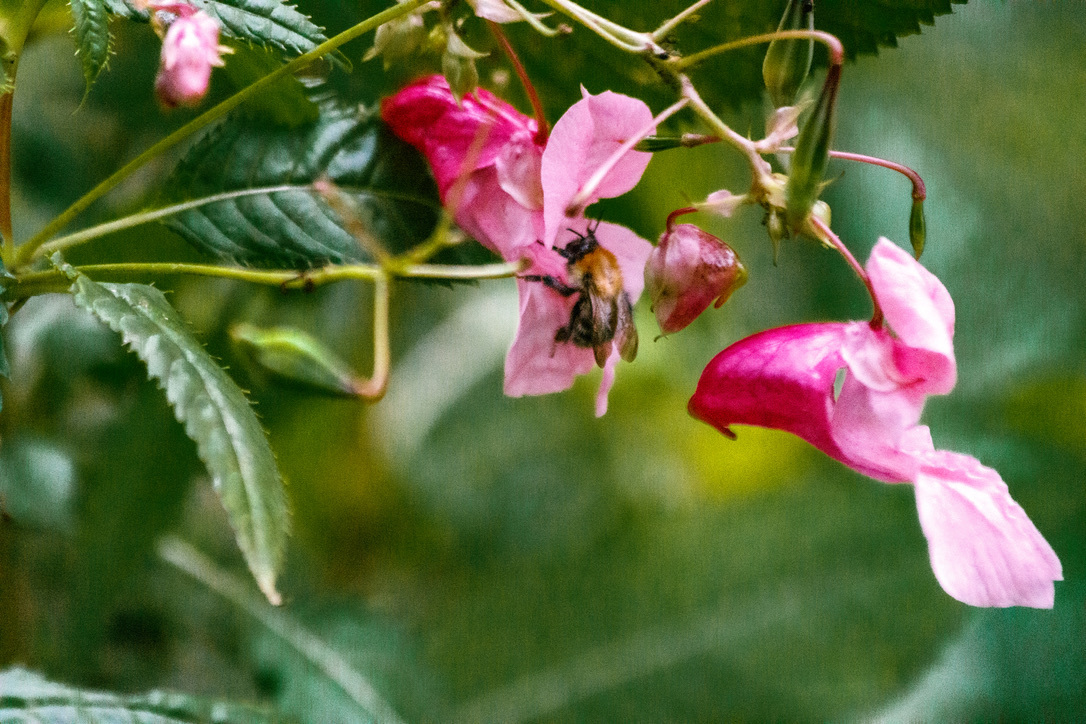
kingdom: Animalia
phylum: Arthropoda
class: Insecta
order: Hymenoptera
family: Apidae
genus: Bombus
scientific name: Bombus pascuorum
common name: Common carder bee
